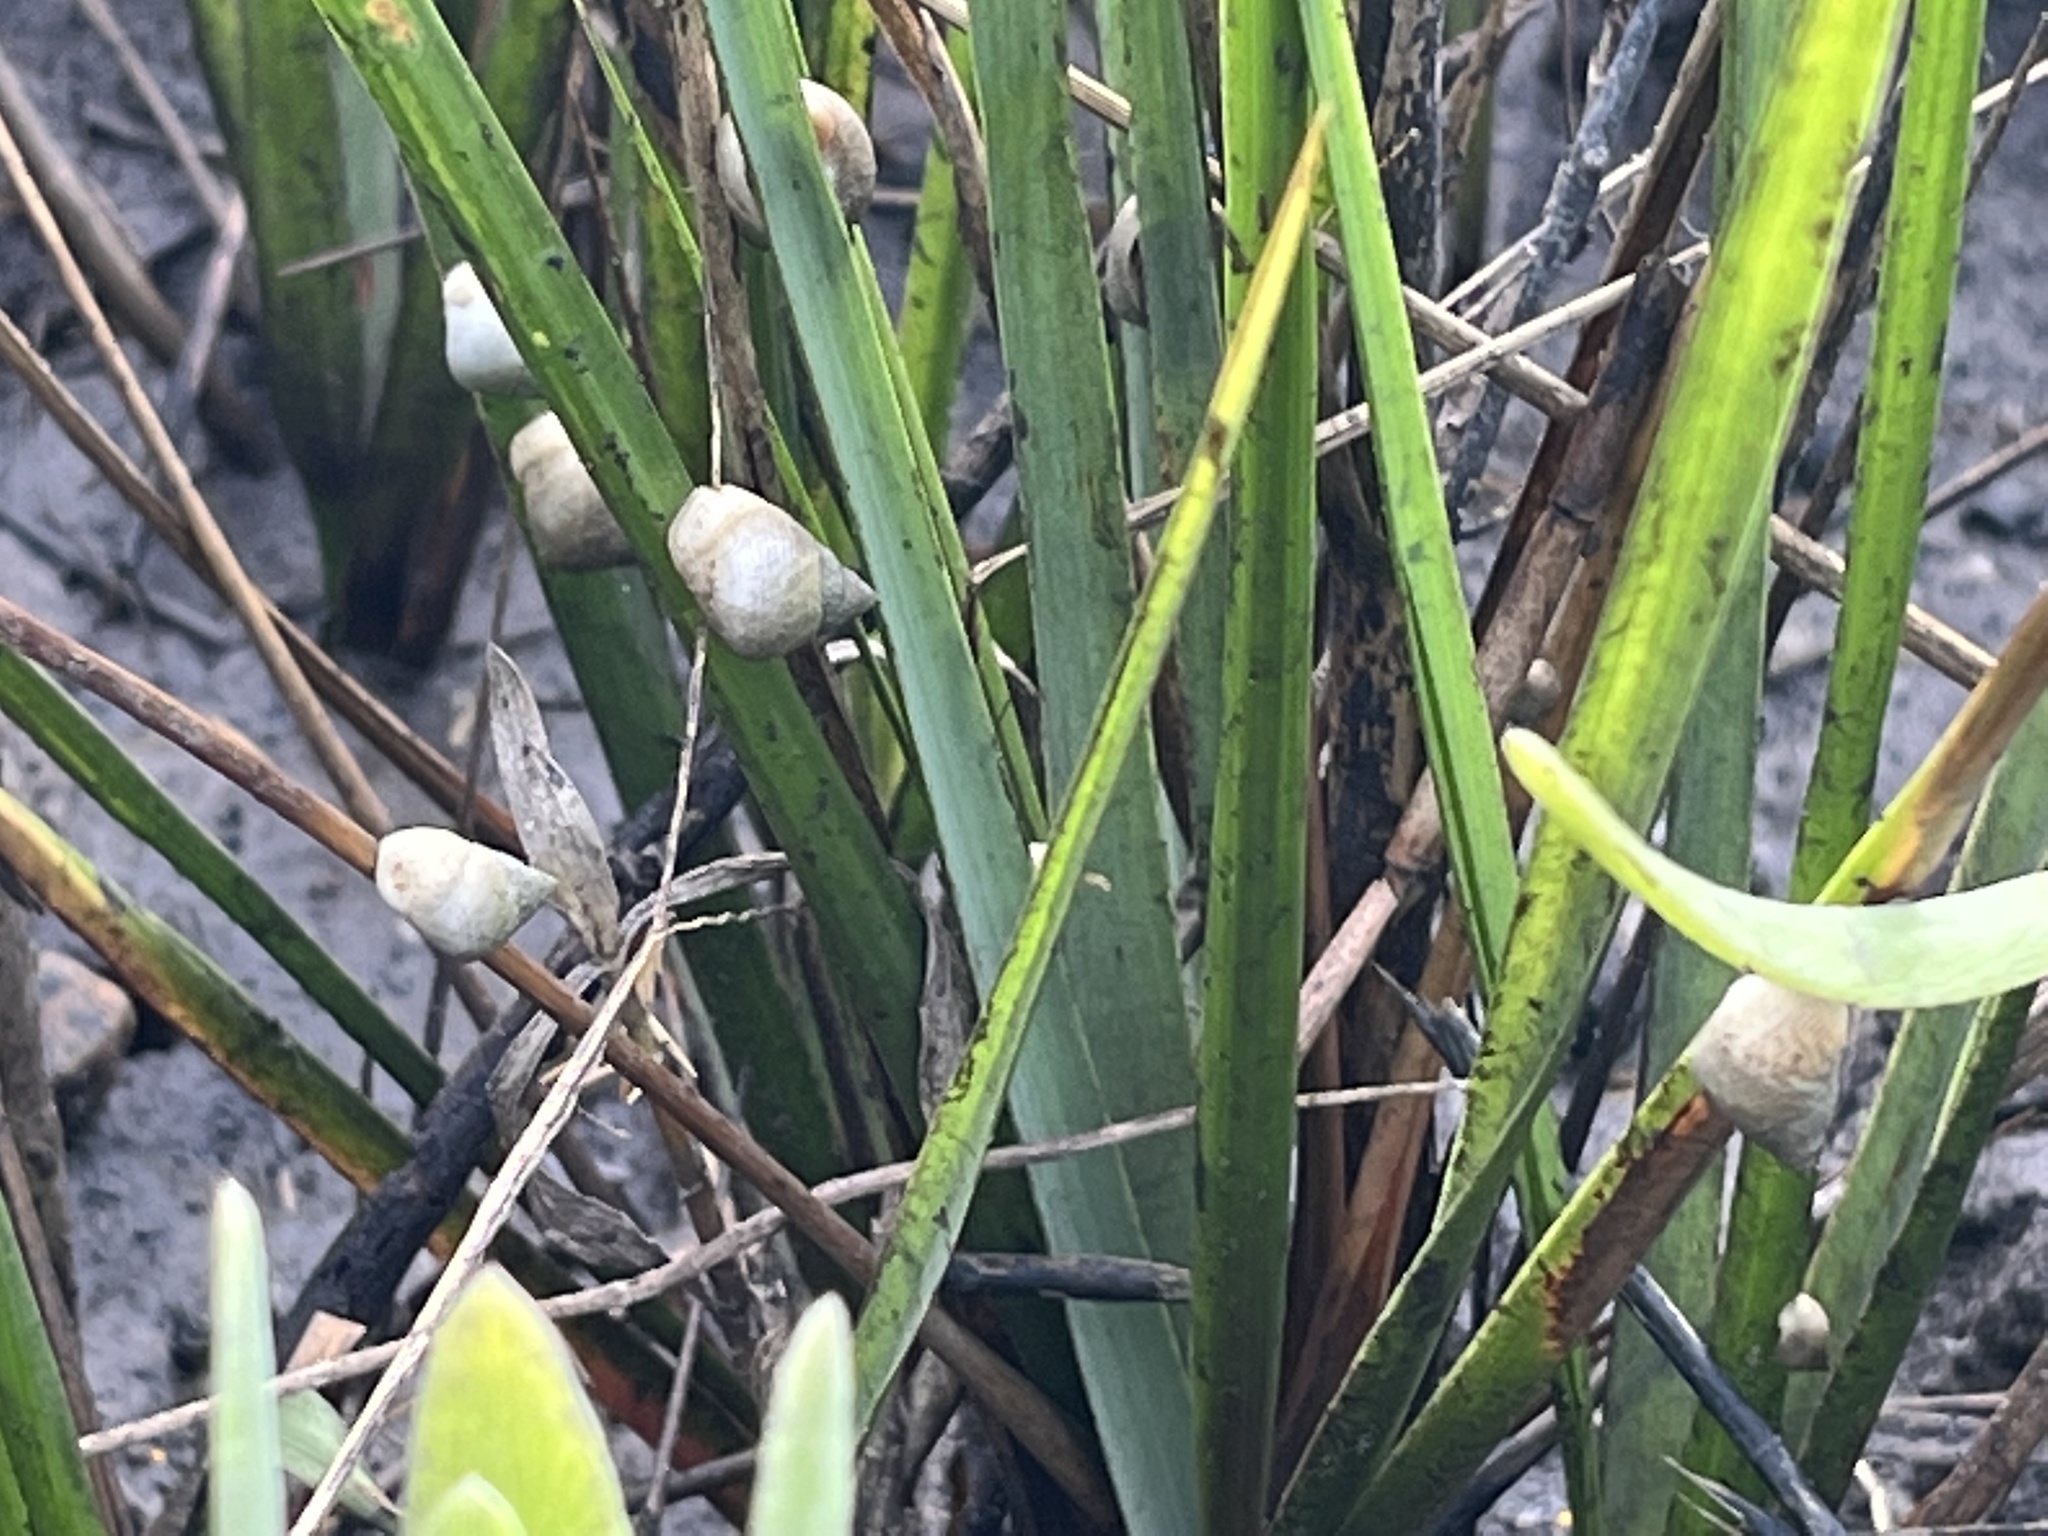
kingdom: Animalia
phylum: Mollusca
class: Gastropoda
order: Littorinimorpha
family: Littorinidae
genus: Littoraria
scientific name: Littoraria irrorata
